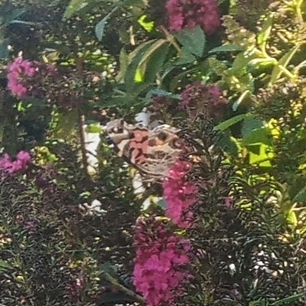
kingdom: Animalia
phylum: Arthropoda
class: Insecta
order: Lepidoptera
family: Nymphalidae
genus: Vanessa
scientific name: Vanessa virginiensis
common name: American lady
